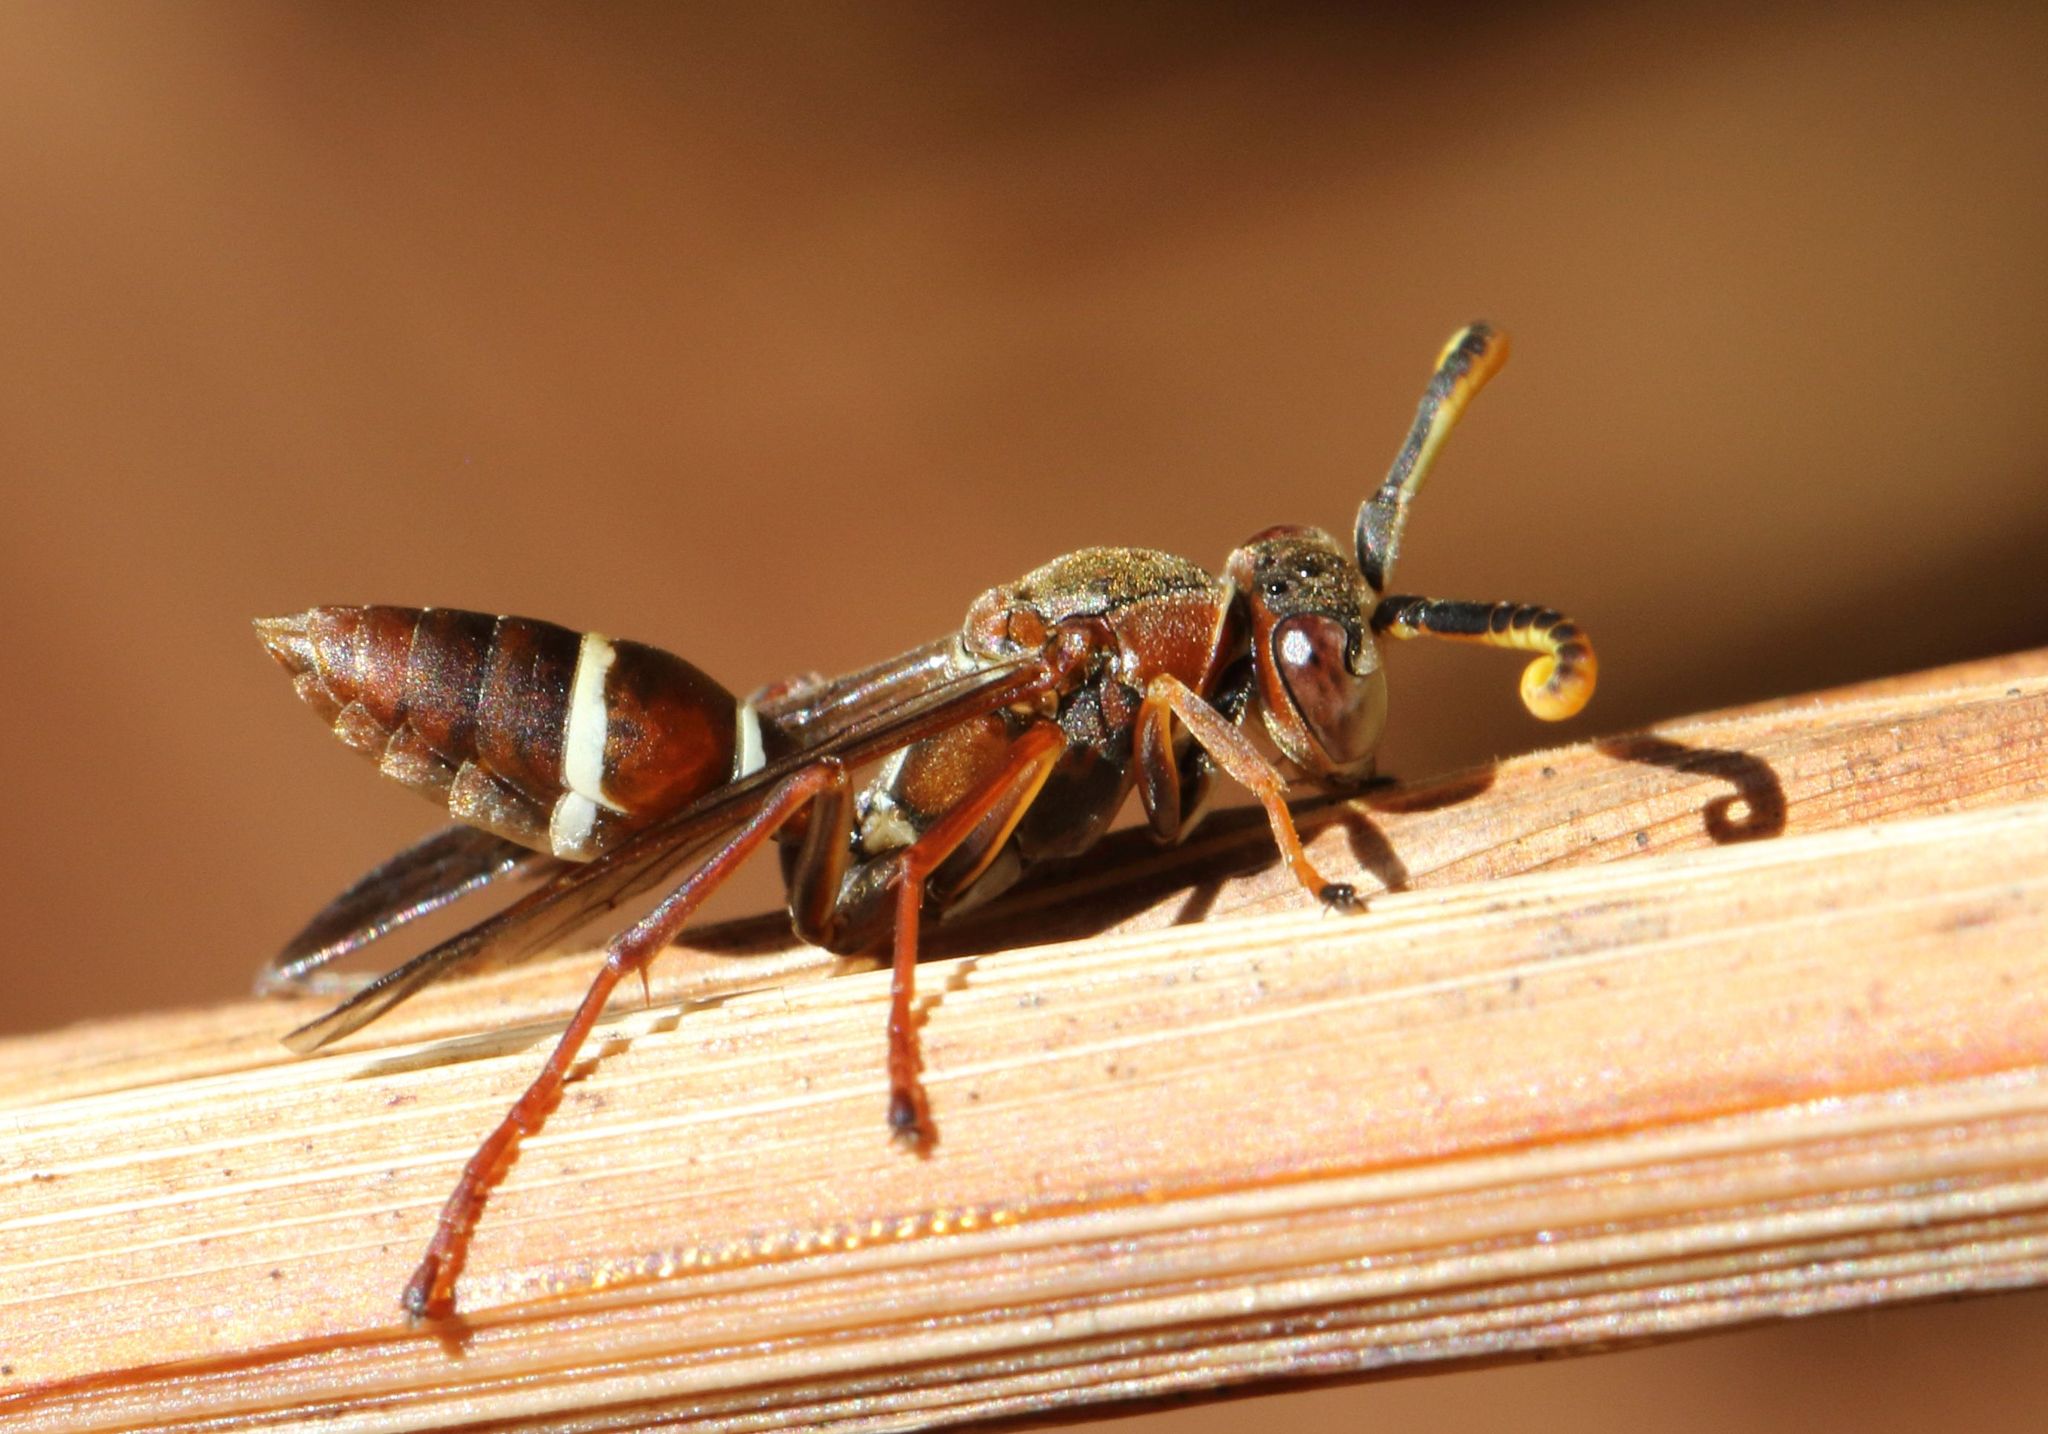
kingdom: Animalia
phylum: Arthropoda
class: Insecta
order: Hymenoptera
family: Eumenidae
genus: Polistes
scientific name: Polistes marginalis
